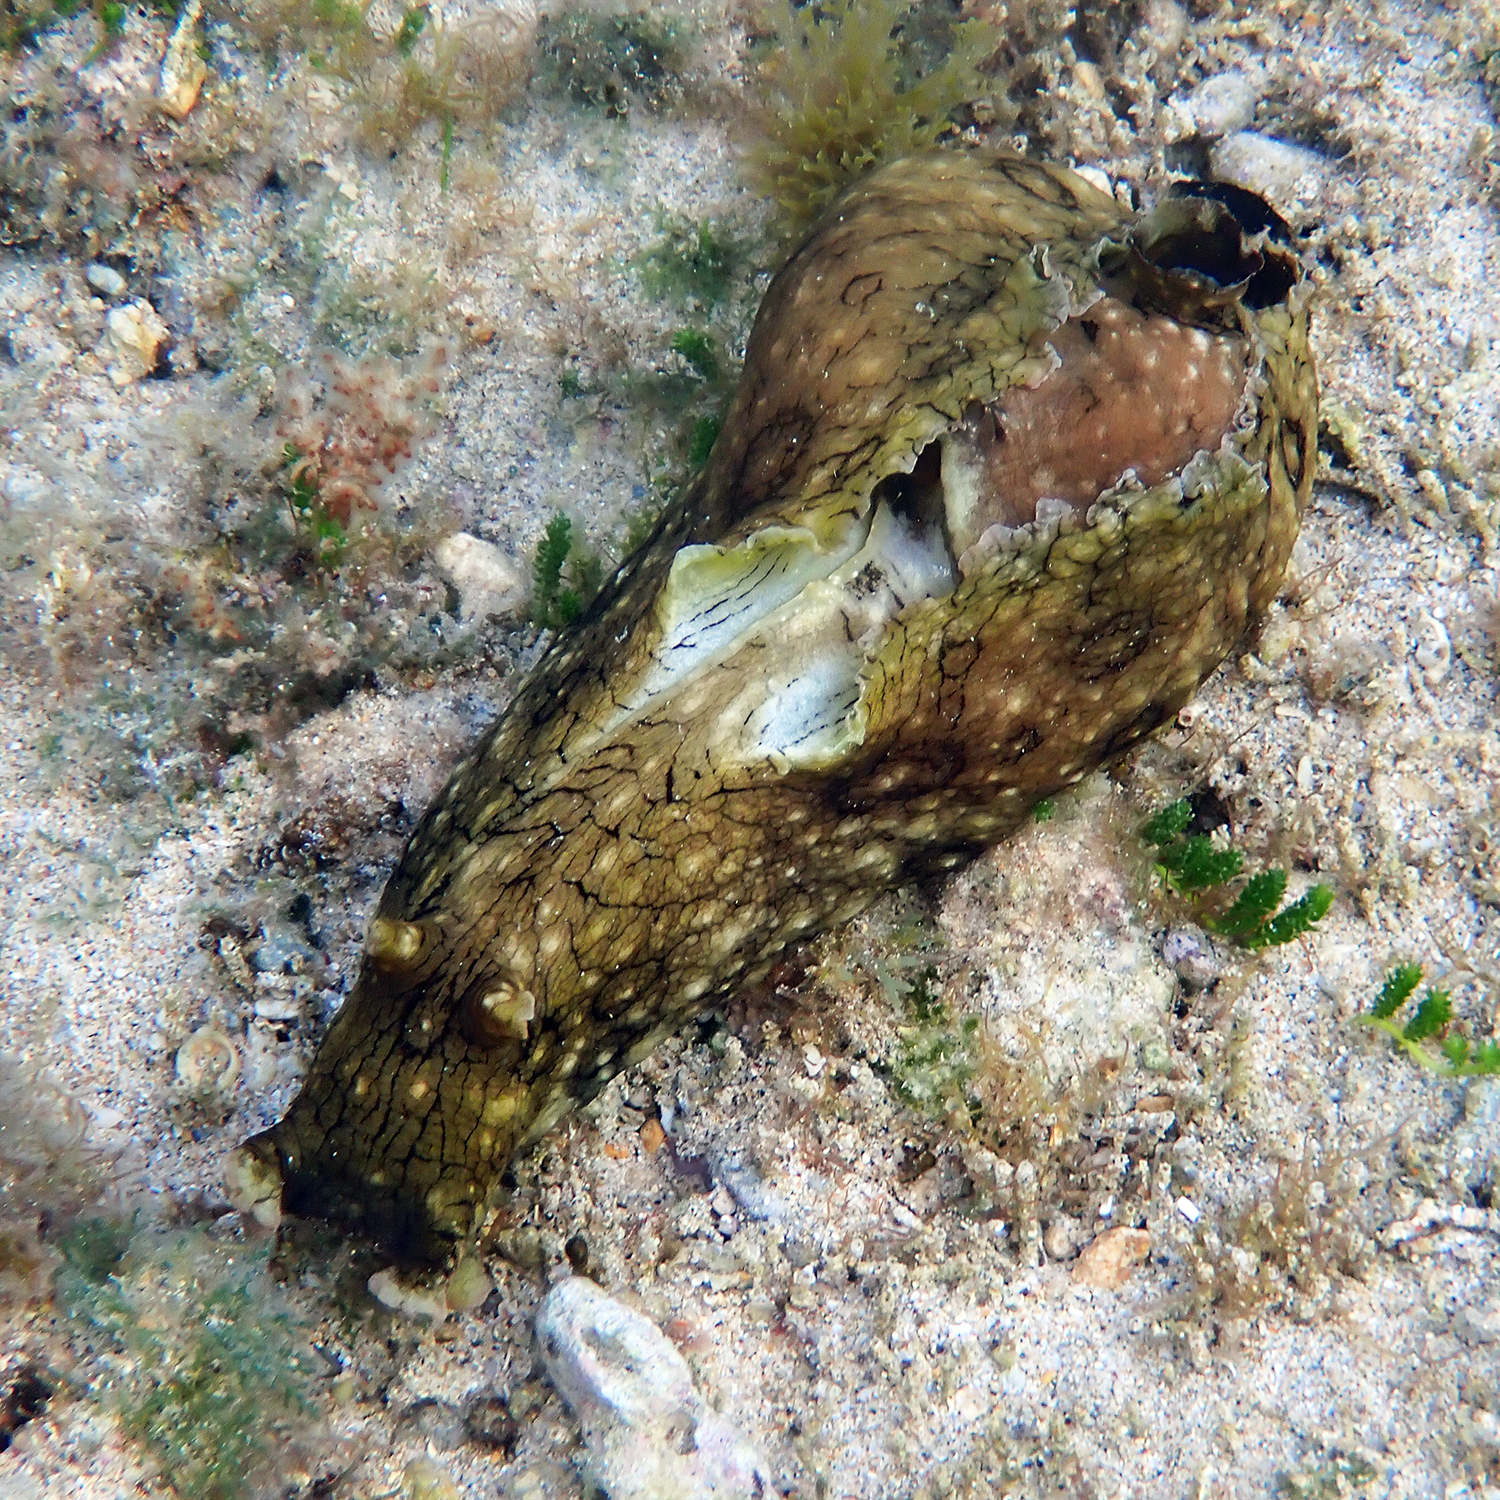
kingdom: Animalia
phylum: Mollusca
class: Gastropoda
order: Aplysiida
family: Aplysiidae
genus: Aplysia
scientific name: Aplysia argus
